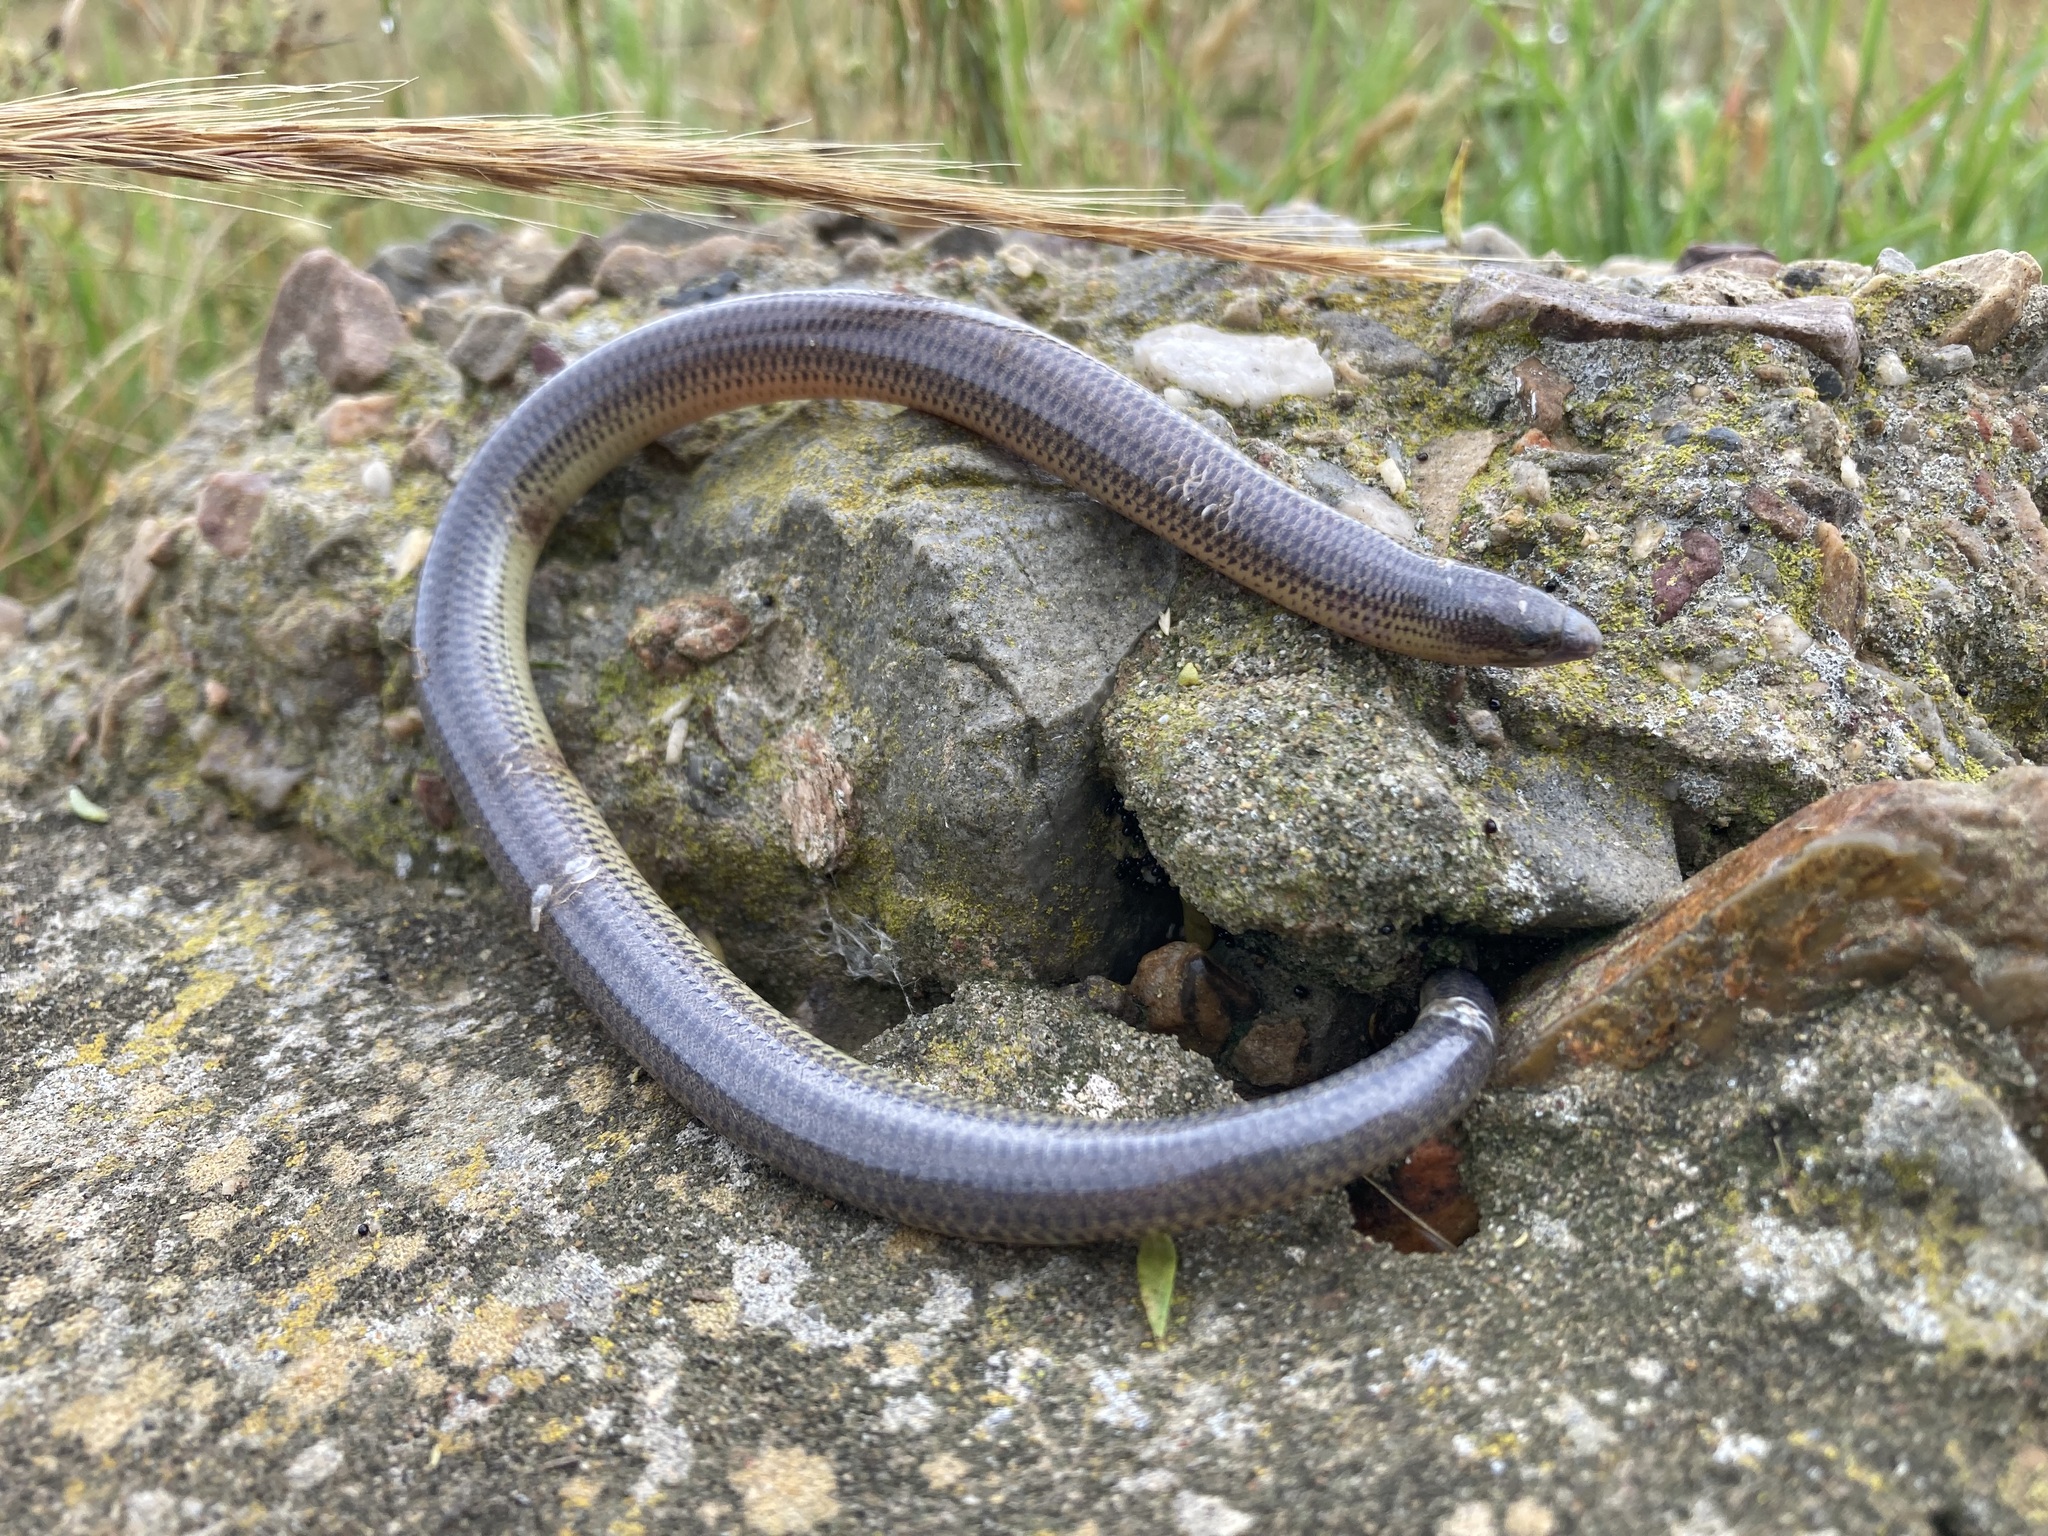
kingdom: Animalia
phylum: Chordata
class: Squamata
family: Scincidae
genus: Acontias
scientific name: Acontias meleagris
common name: Cape legless skink
